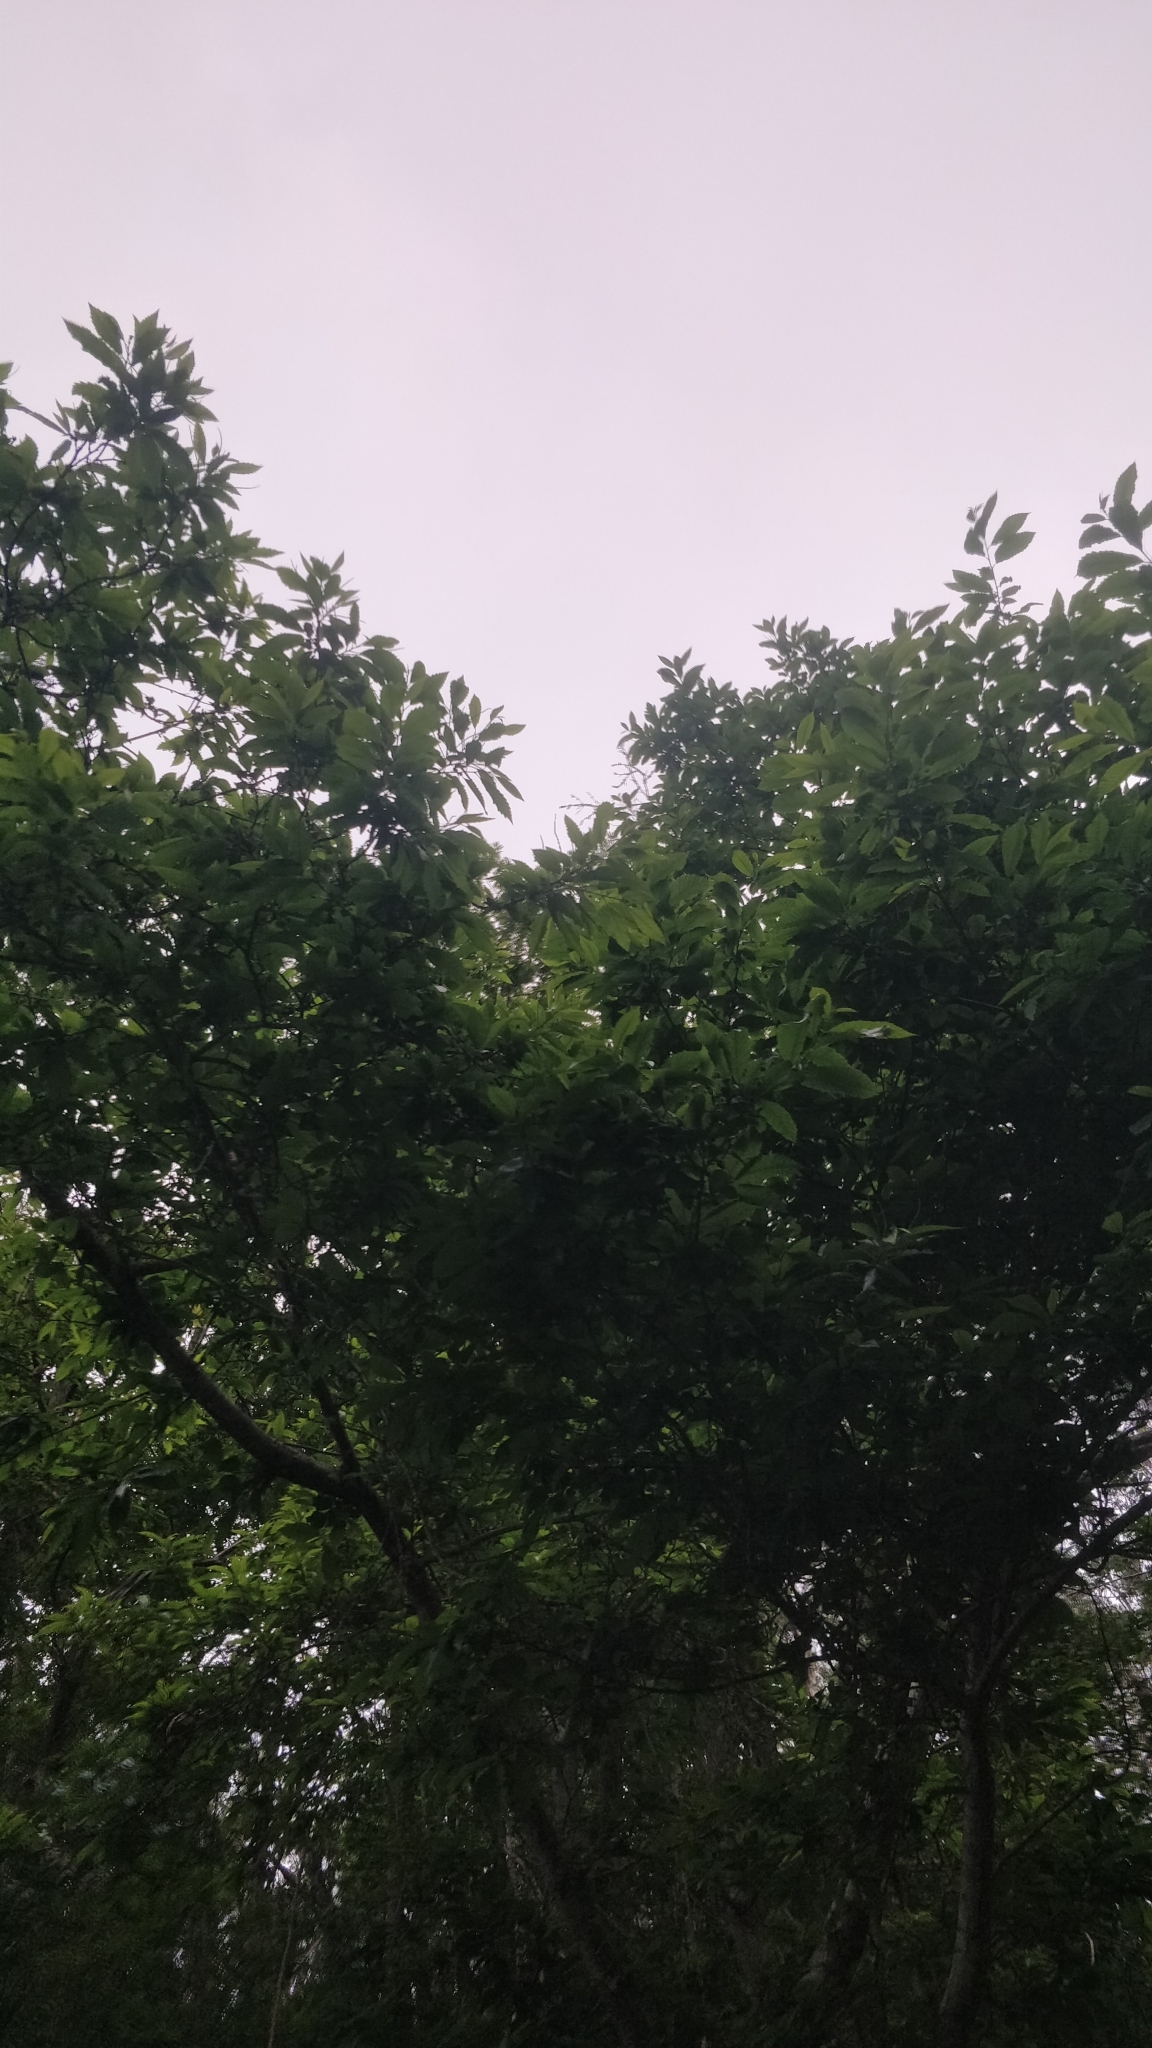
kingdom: Plantae
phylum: Tracheophyta
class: Magnoliopsida
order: Fagales
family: Fagaceae
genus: Castanea
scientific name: Castanea sativa
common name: Sweet chestnut
